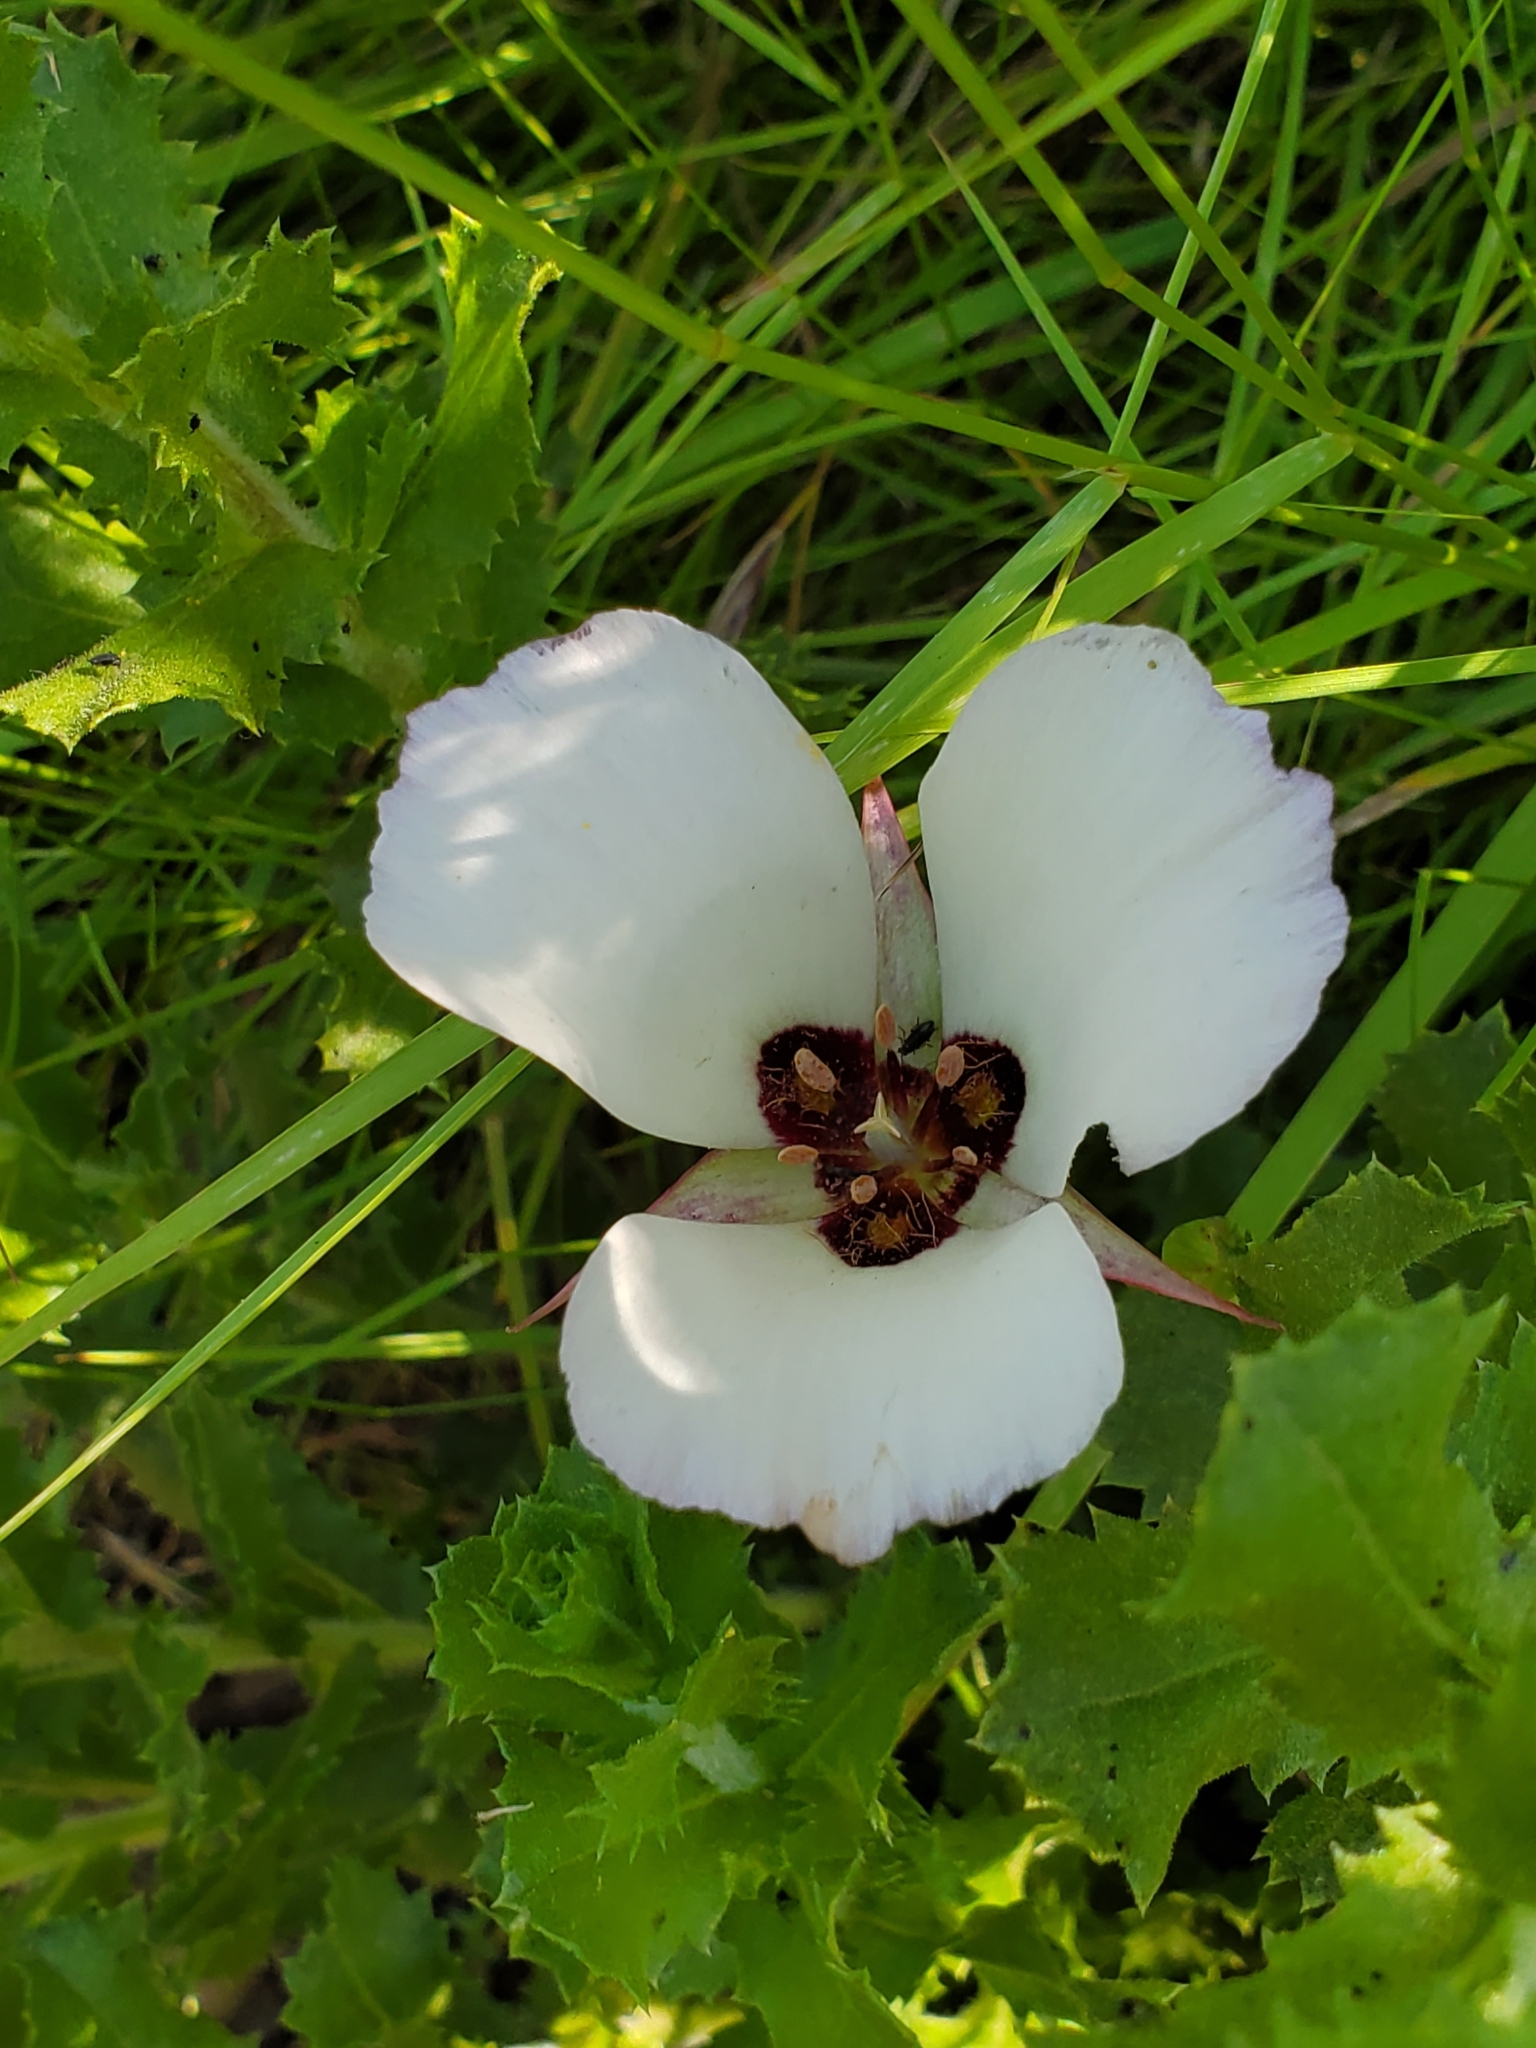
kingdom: Plantae
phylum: Tracheophyta
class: Liliopsida
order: Liliales
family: Liliaceae
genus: Calochortus
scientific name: Calochortus catalinae
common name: Catalina mariposa-lily
